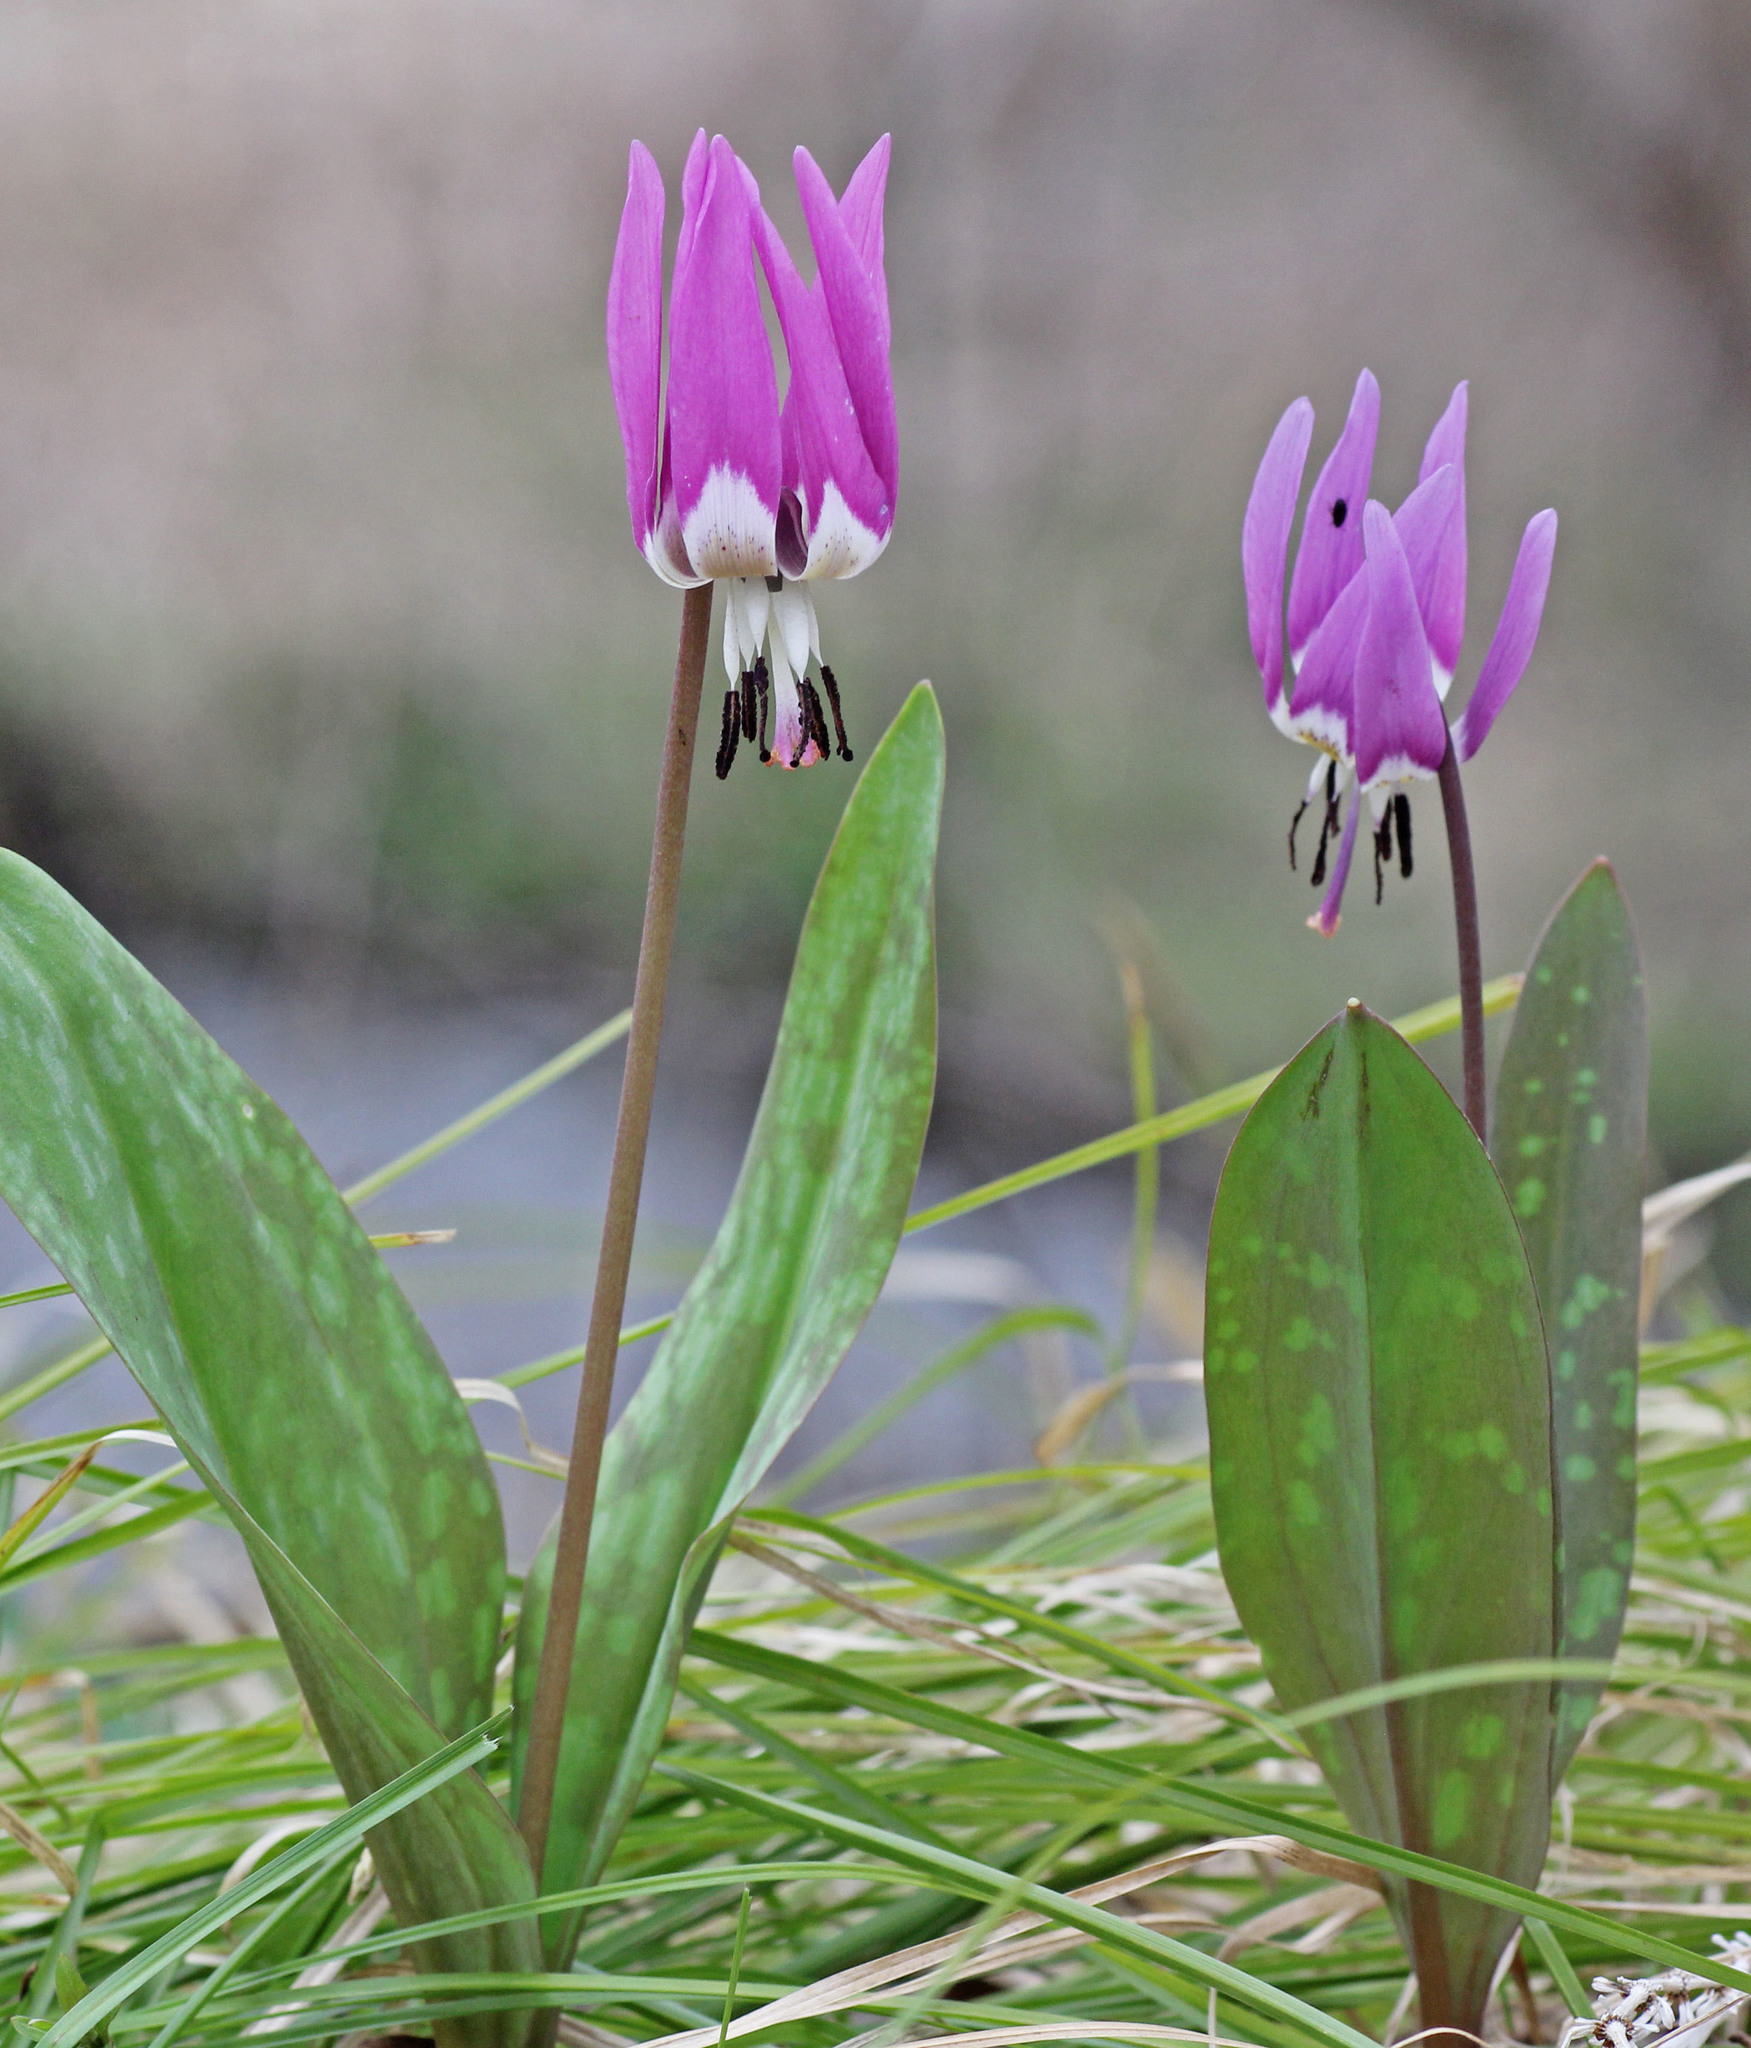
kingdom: Plantae
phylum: Tracheophyta
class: Liliopsida
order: Liliales
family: Liliaceae
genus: Erythronium
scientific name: Erythronium sulevii
